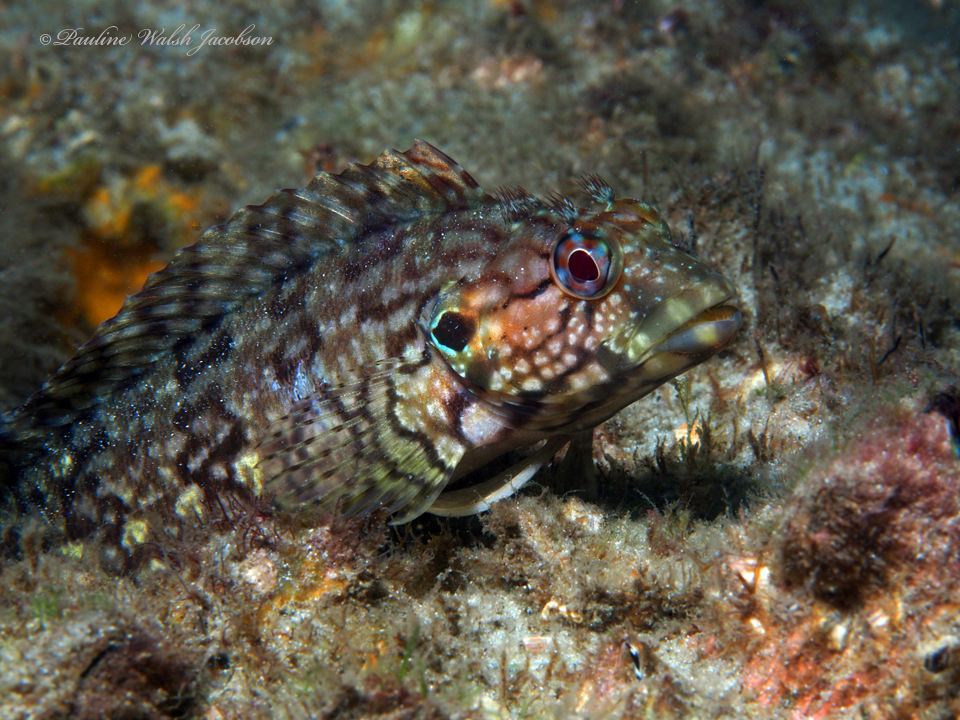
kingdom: Animalia
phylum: Chordata
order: Perciformes
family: Labrisomidae
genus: Labrisomus
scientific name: Labrisomus conditus
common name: Masquerader hairy blenny
